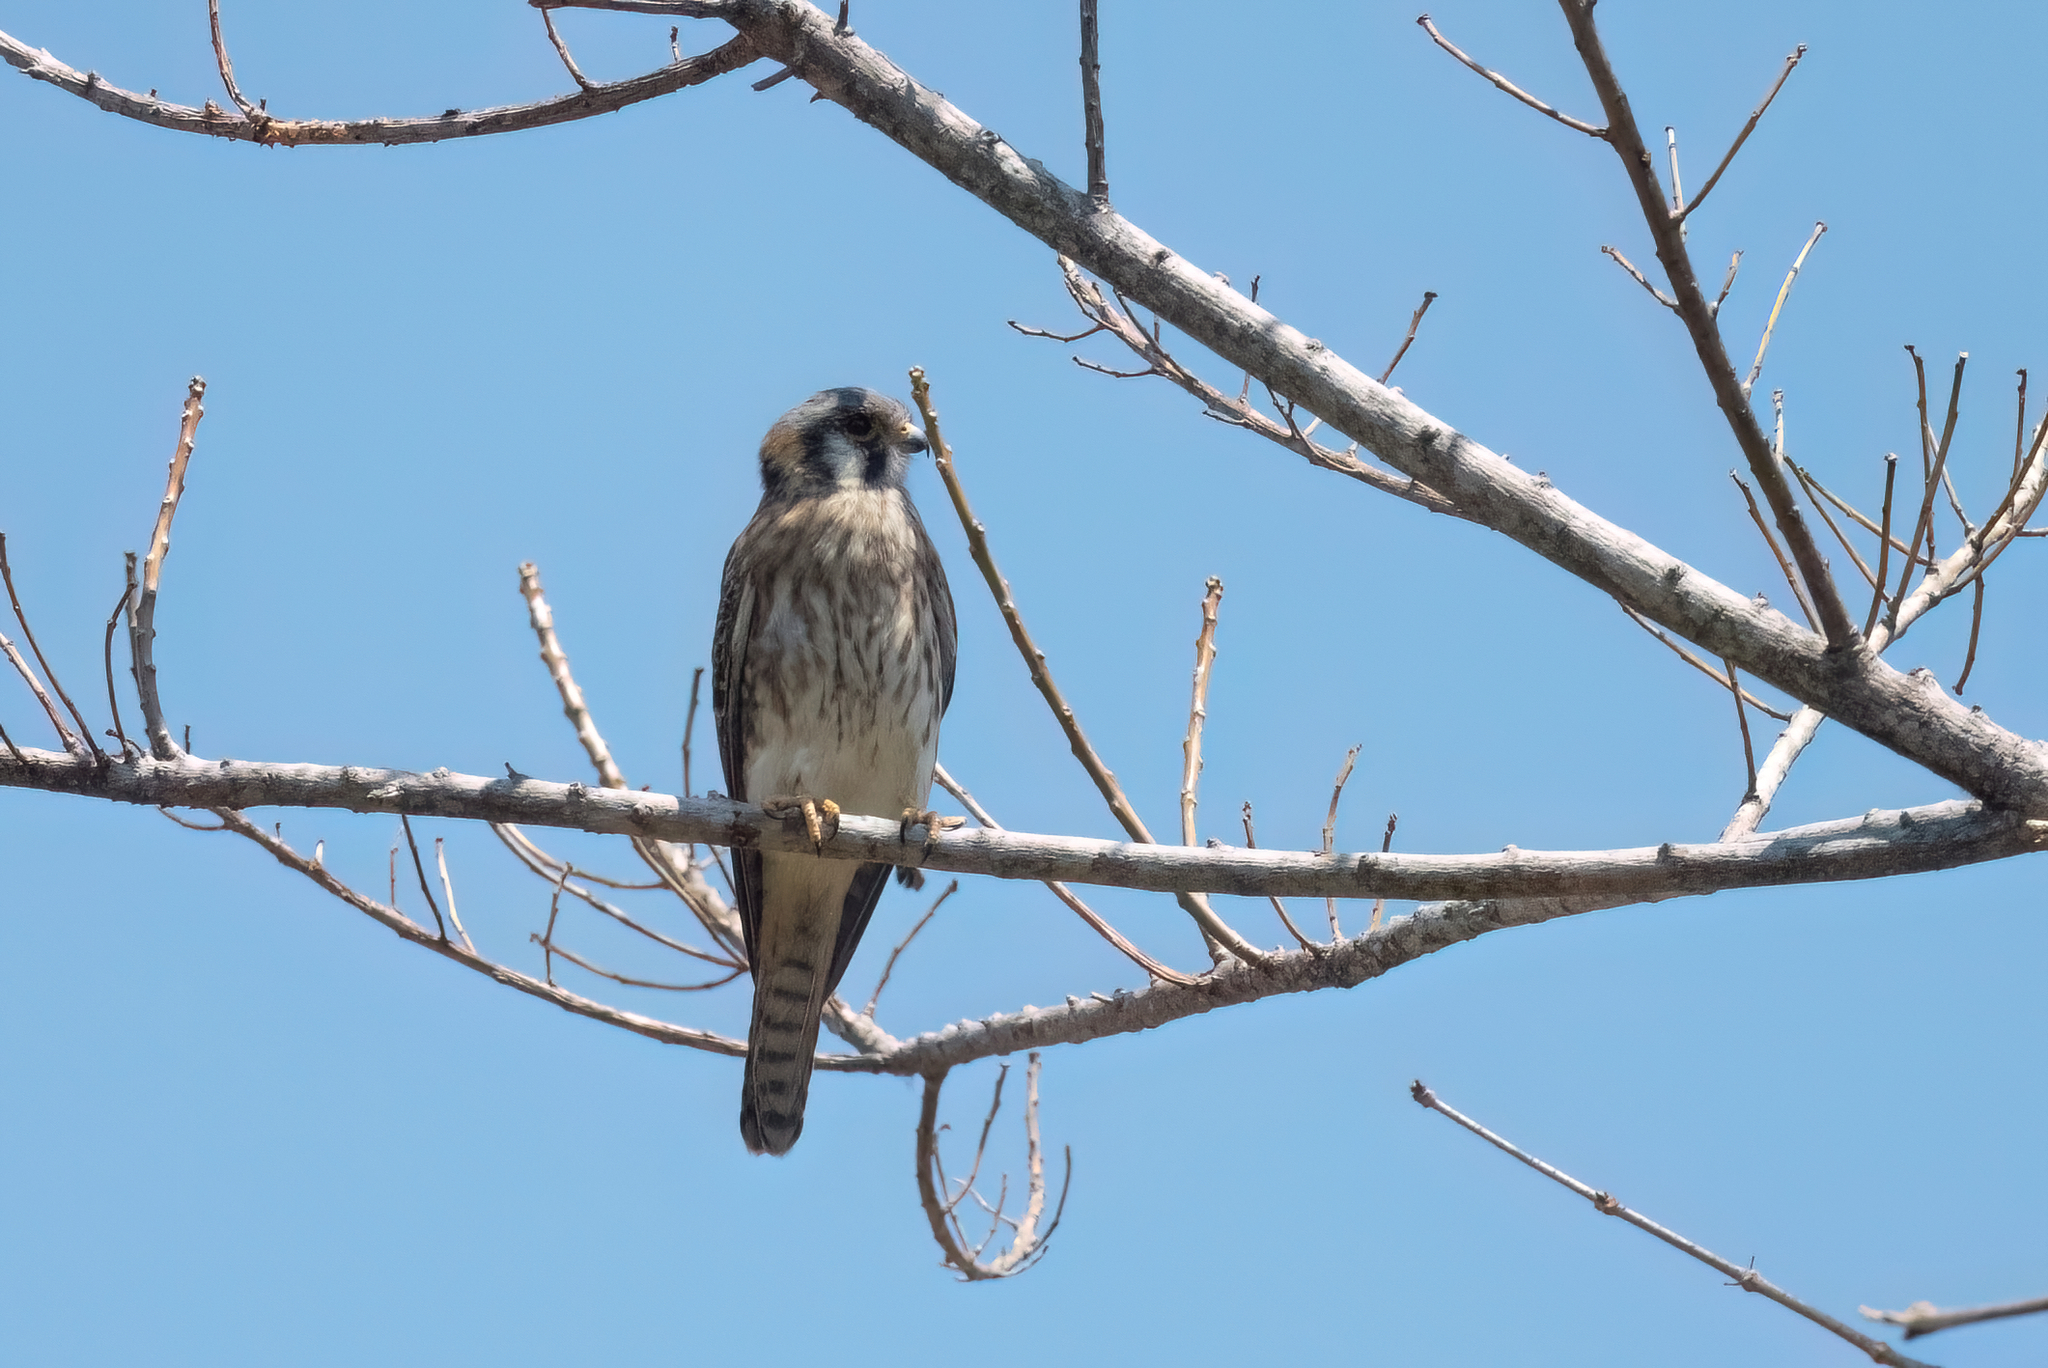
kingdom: Animalia
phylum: Chordata
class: Aves
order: Falconiformes
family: Falconidae
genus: Falco
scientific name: Falco sparverius
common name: American kestrel
